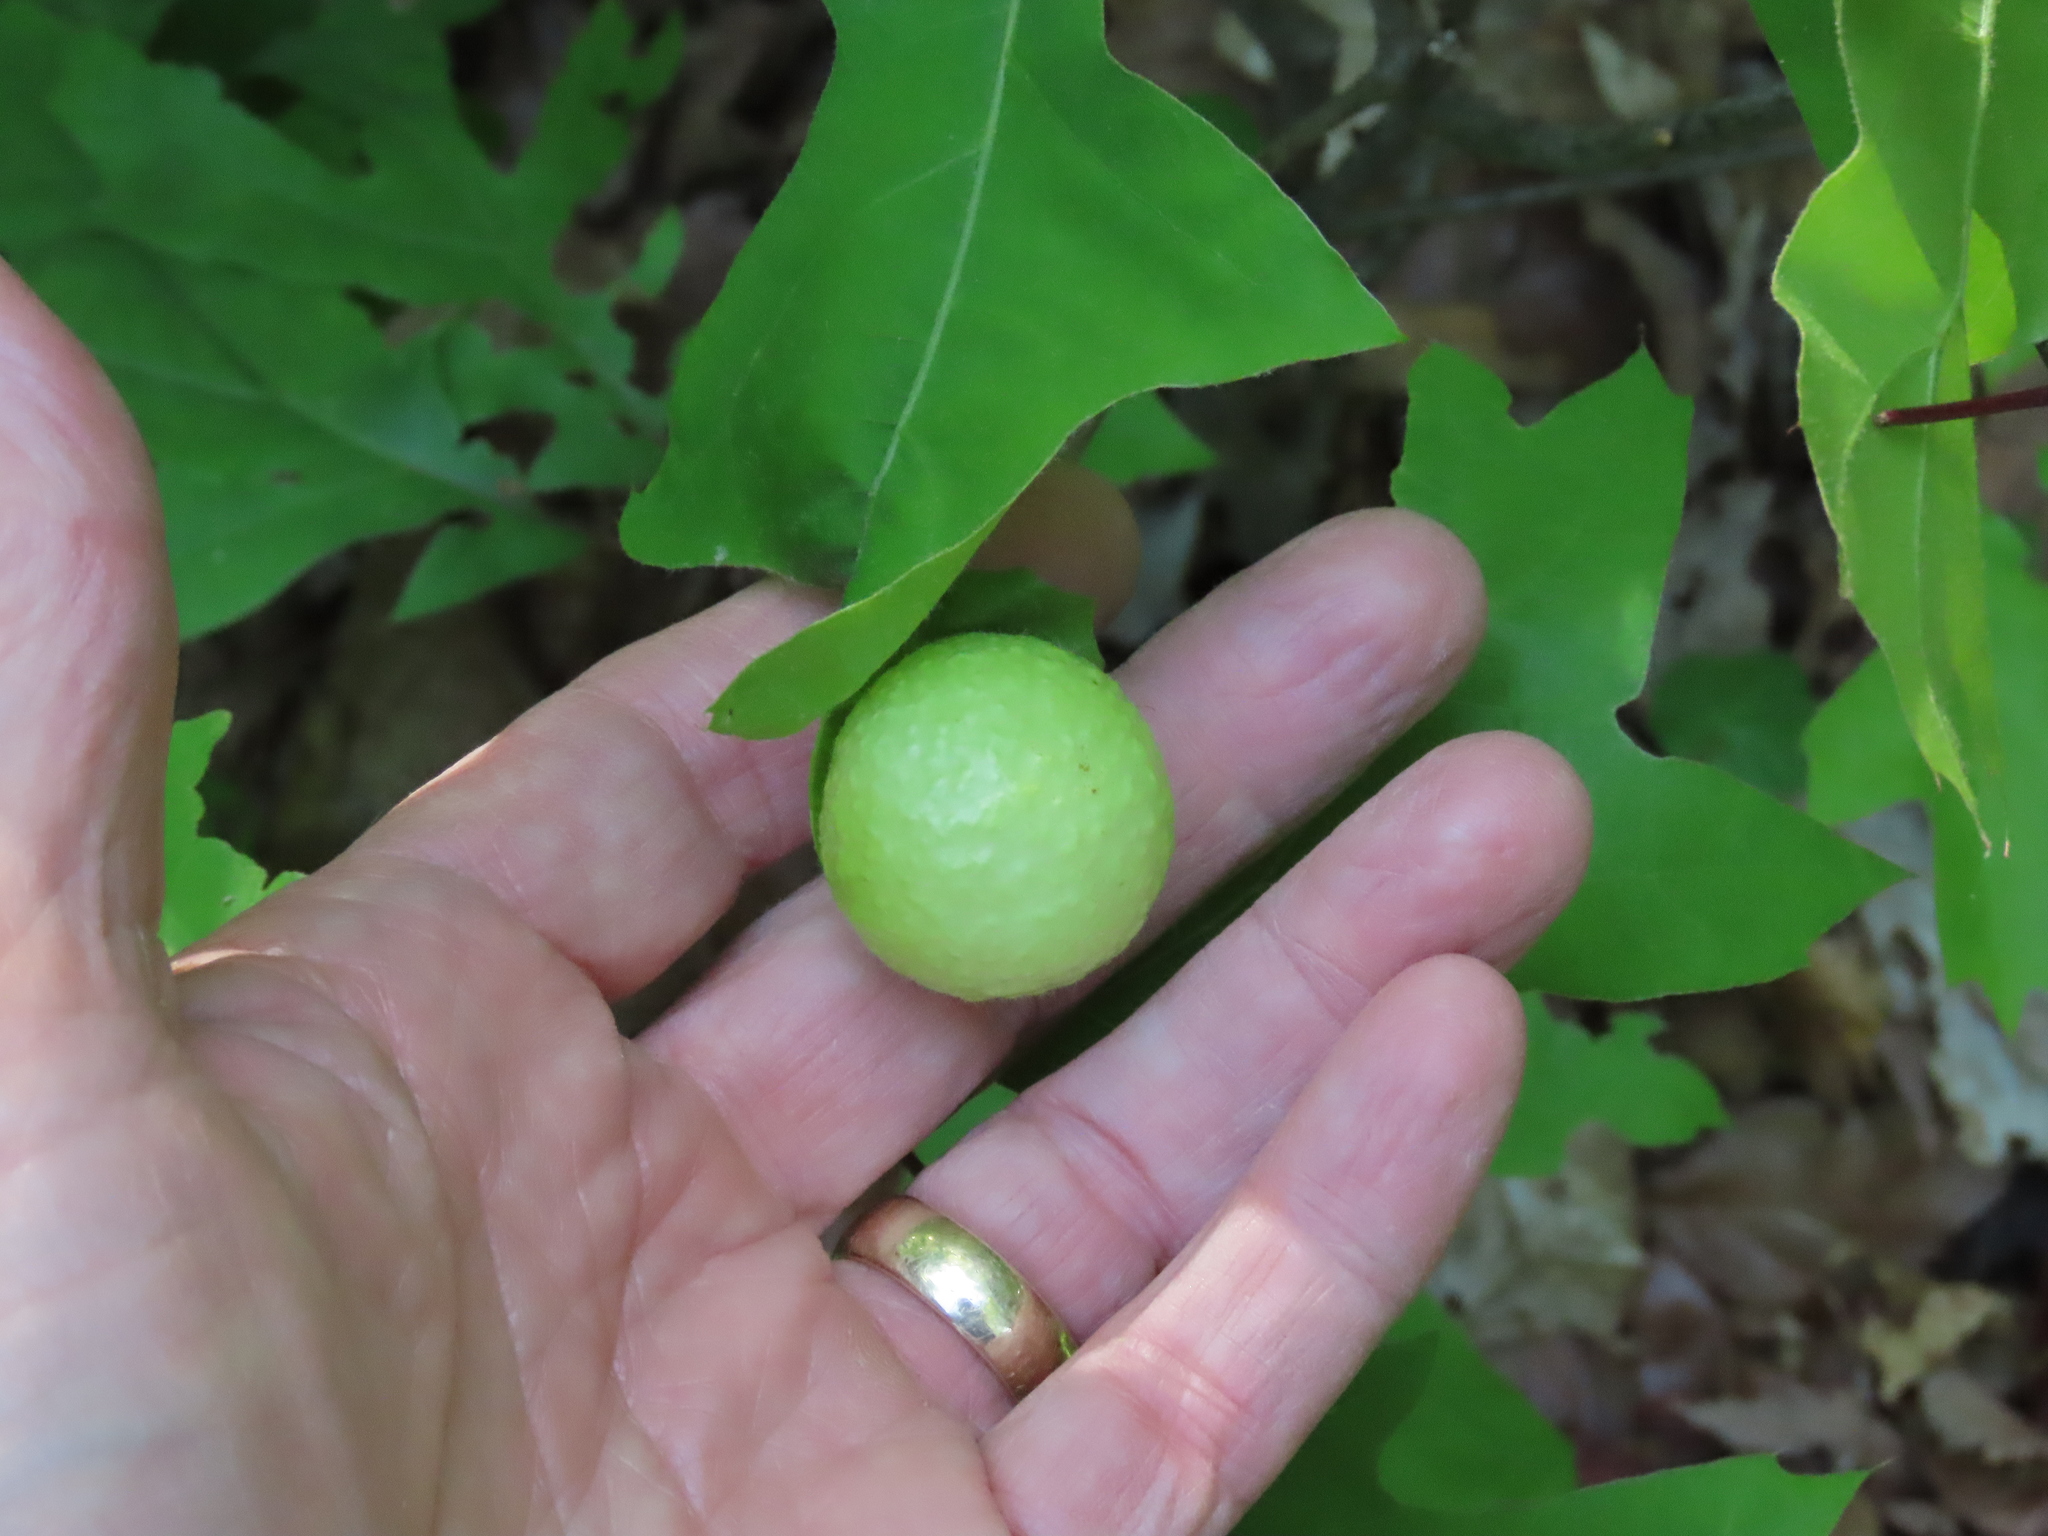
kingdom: Animalia
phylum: Arthropoda
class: Insecta
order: Hymenoptera
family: Cynipidae
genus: Amphibolips
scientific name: Amphibolips
